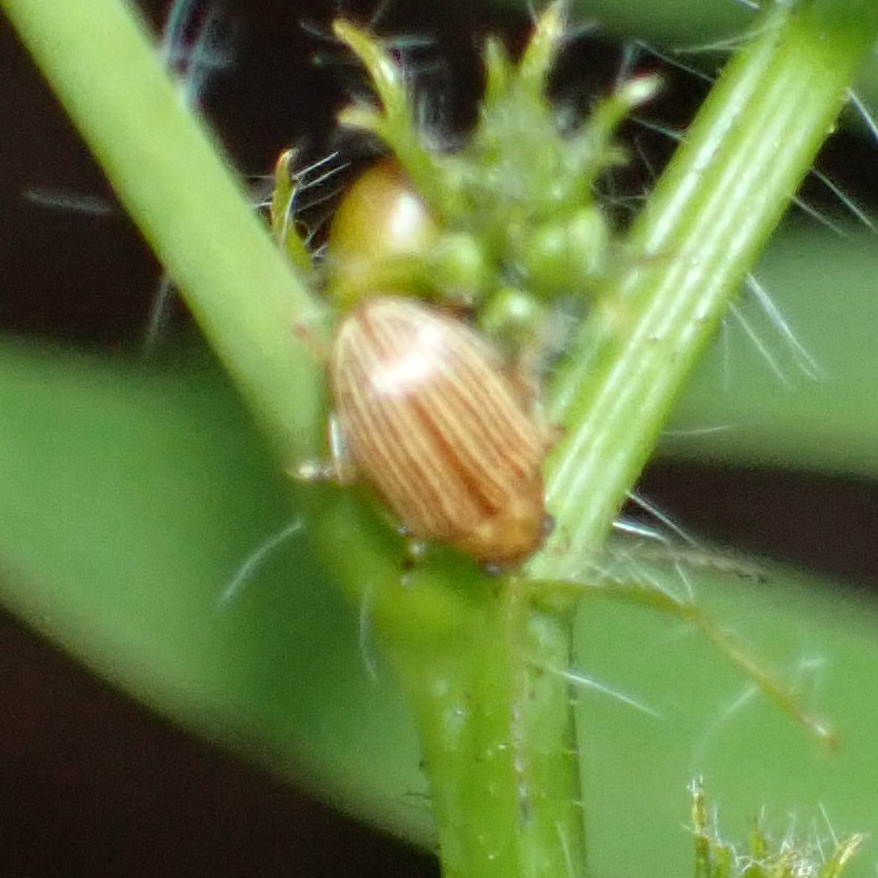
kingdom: Animalia
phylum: Arthropoda
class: Insecta
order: Coleoptera
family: Chrysomelidae
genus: Colaspis
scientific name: Colaspis brunnea
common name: Grape colaspis
